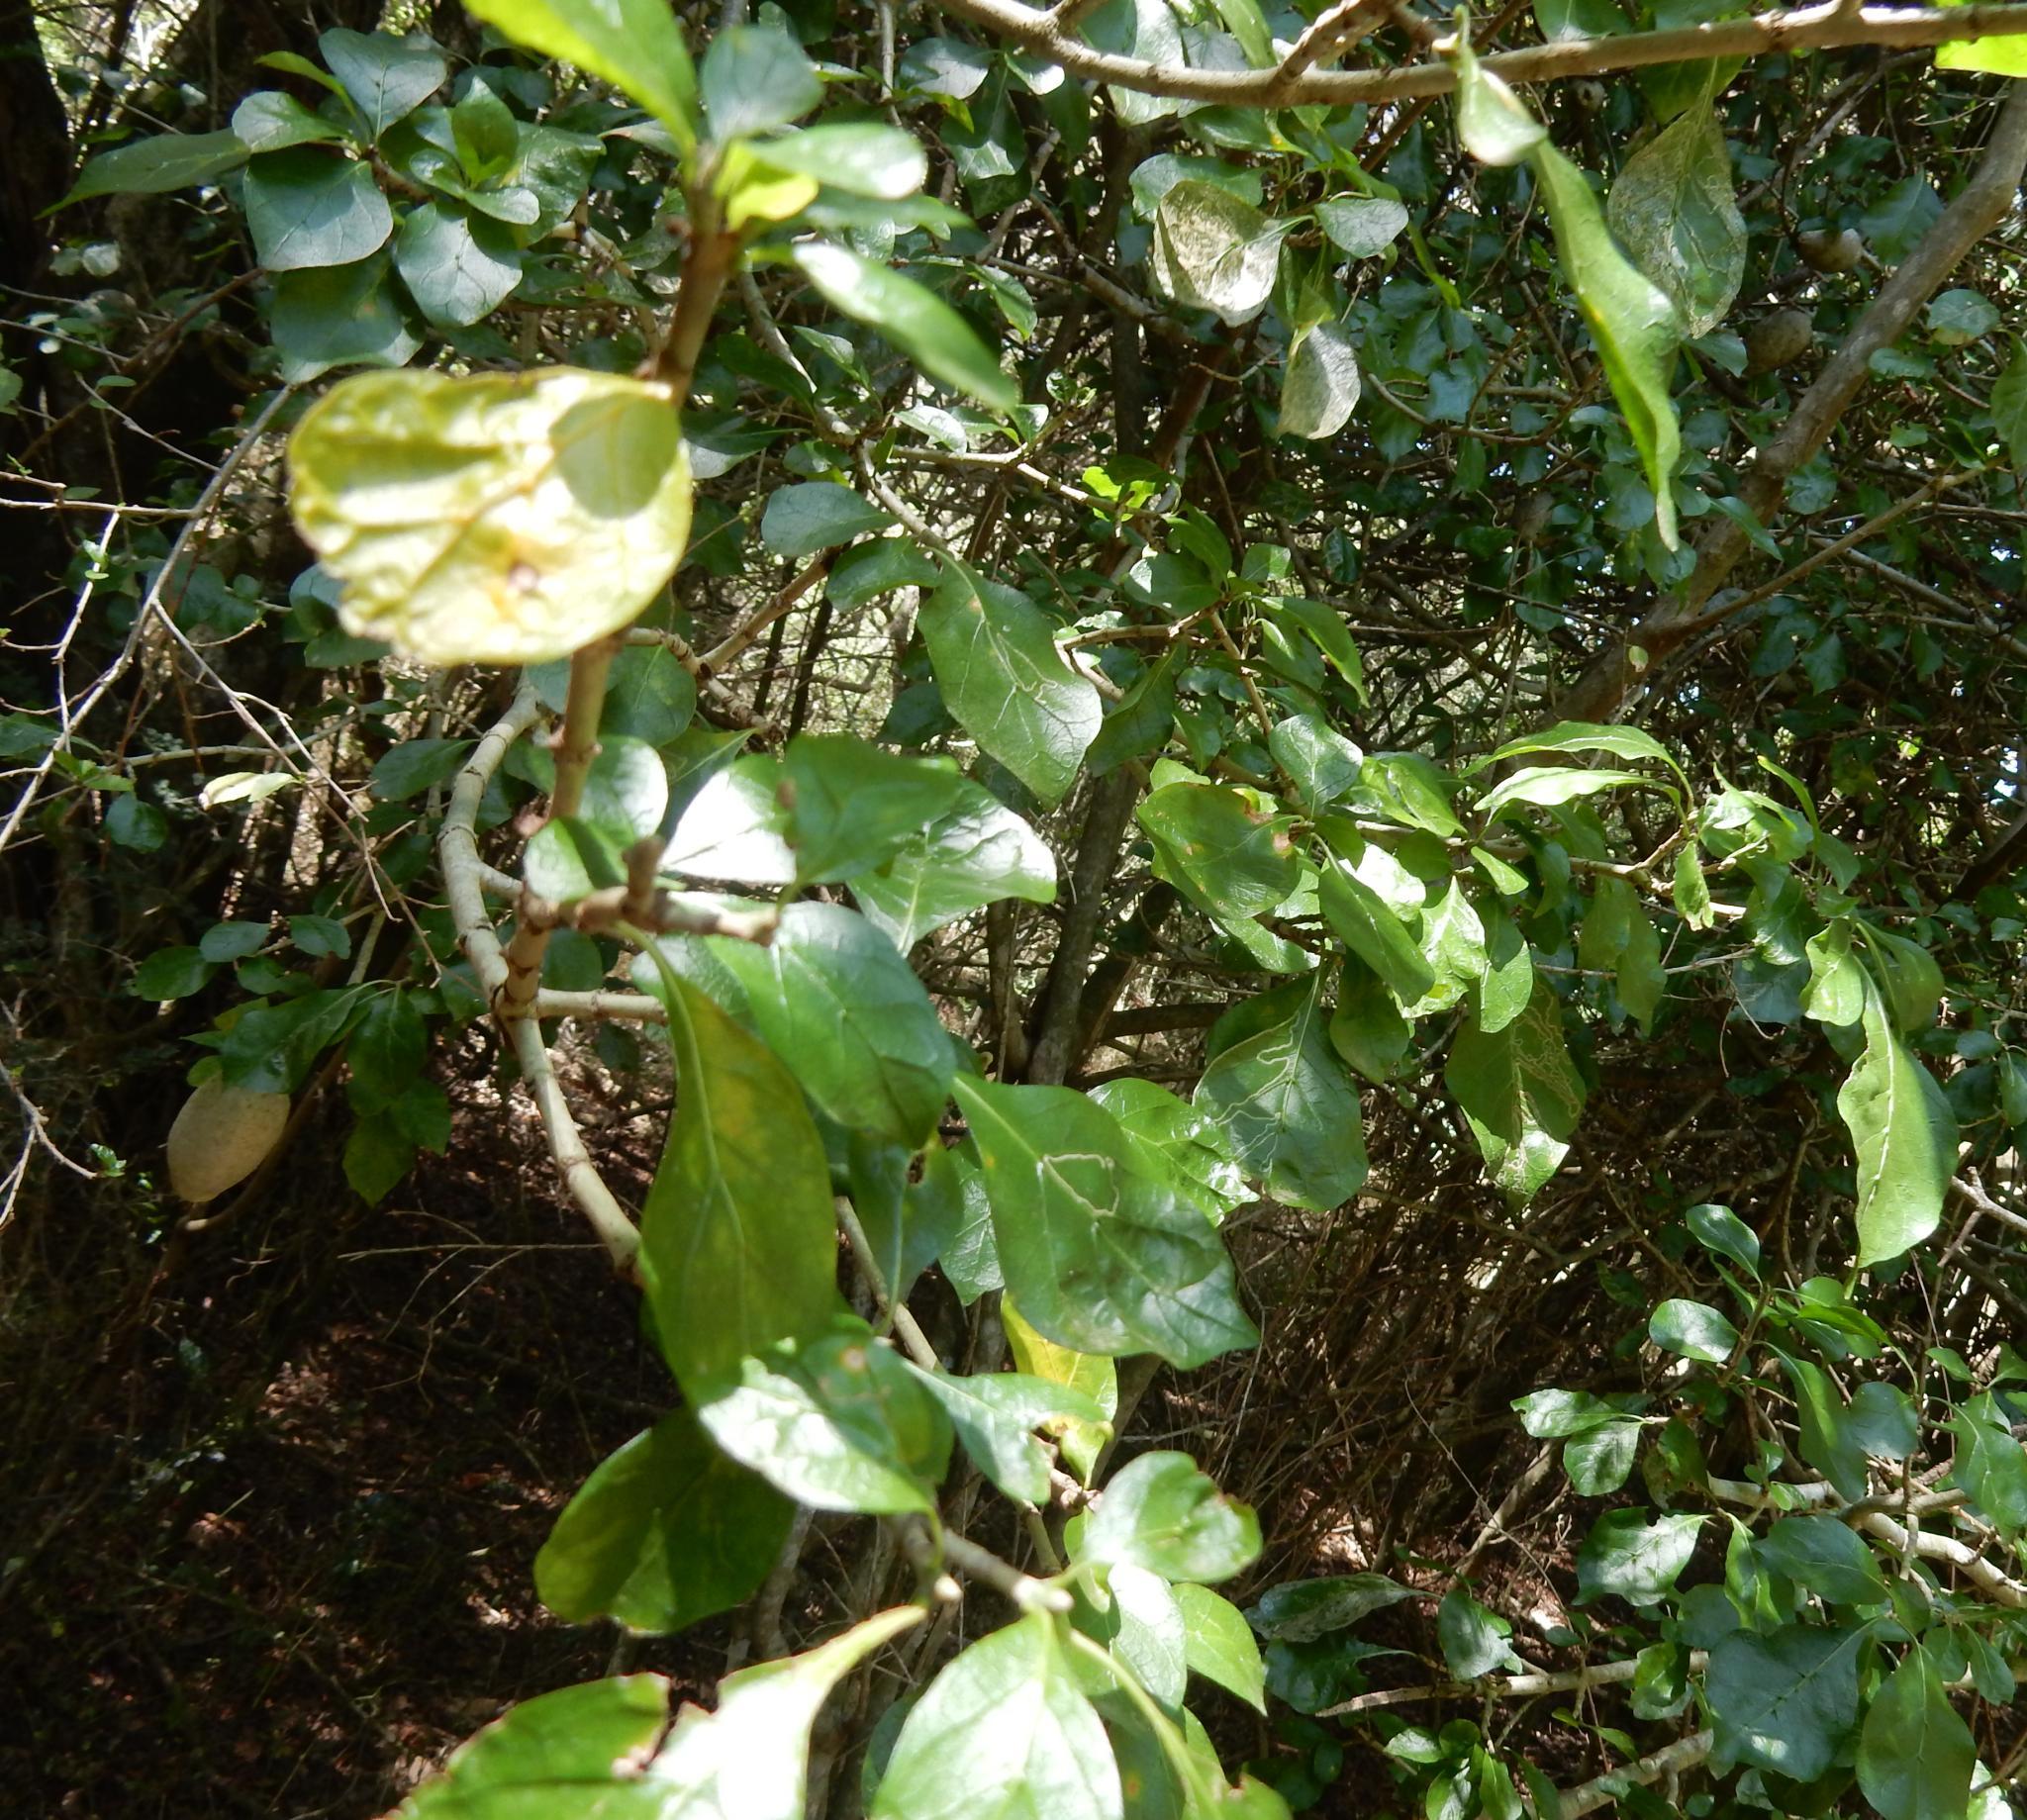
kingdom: Plantae
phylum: Tracheophyta
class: Magnoliopsida
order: Gentianales
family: Rubiaceae
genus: Gardenia
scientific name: Gardenia thunbergia
